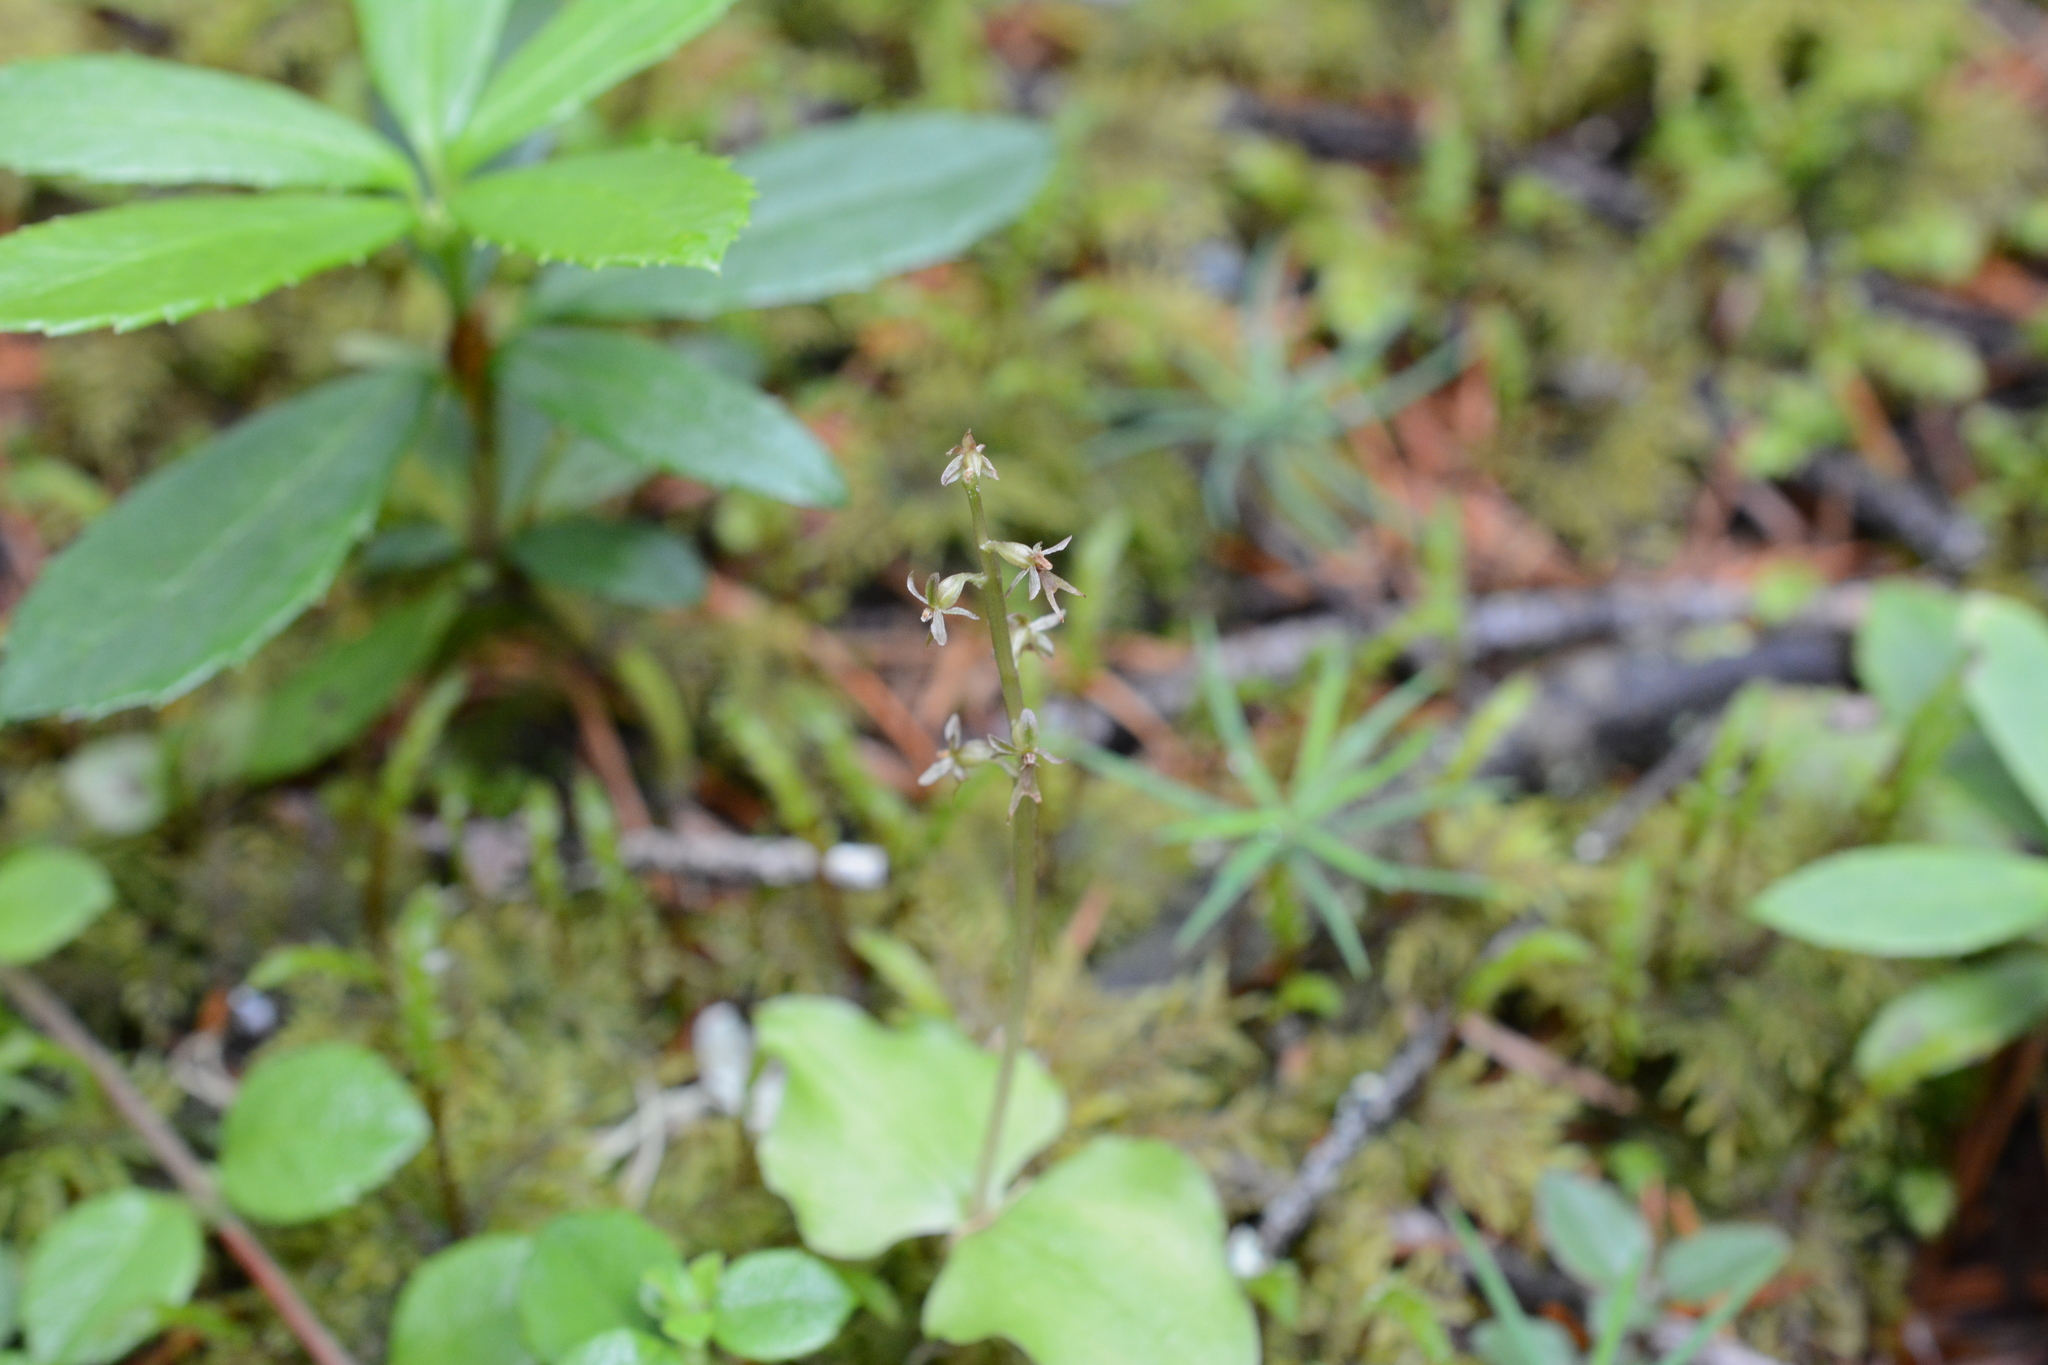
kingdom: Plantae
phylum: Tracheophyta
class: Liliopsida
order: Asparagales
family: Orchidaceae
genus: Neottia
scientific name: Neottia cordata
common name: Lesser twayblade
